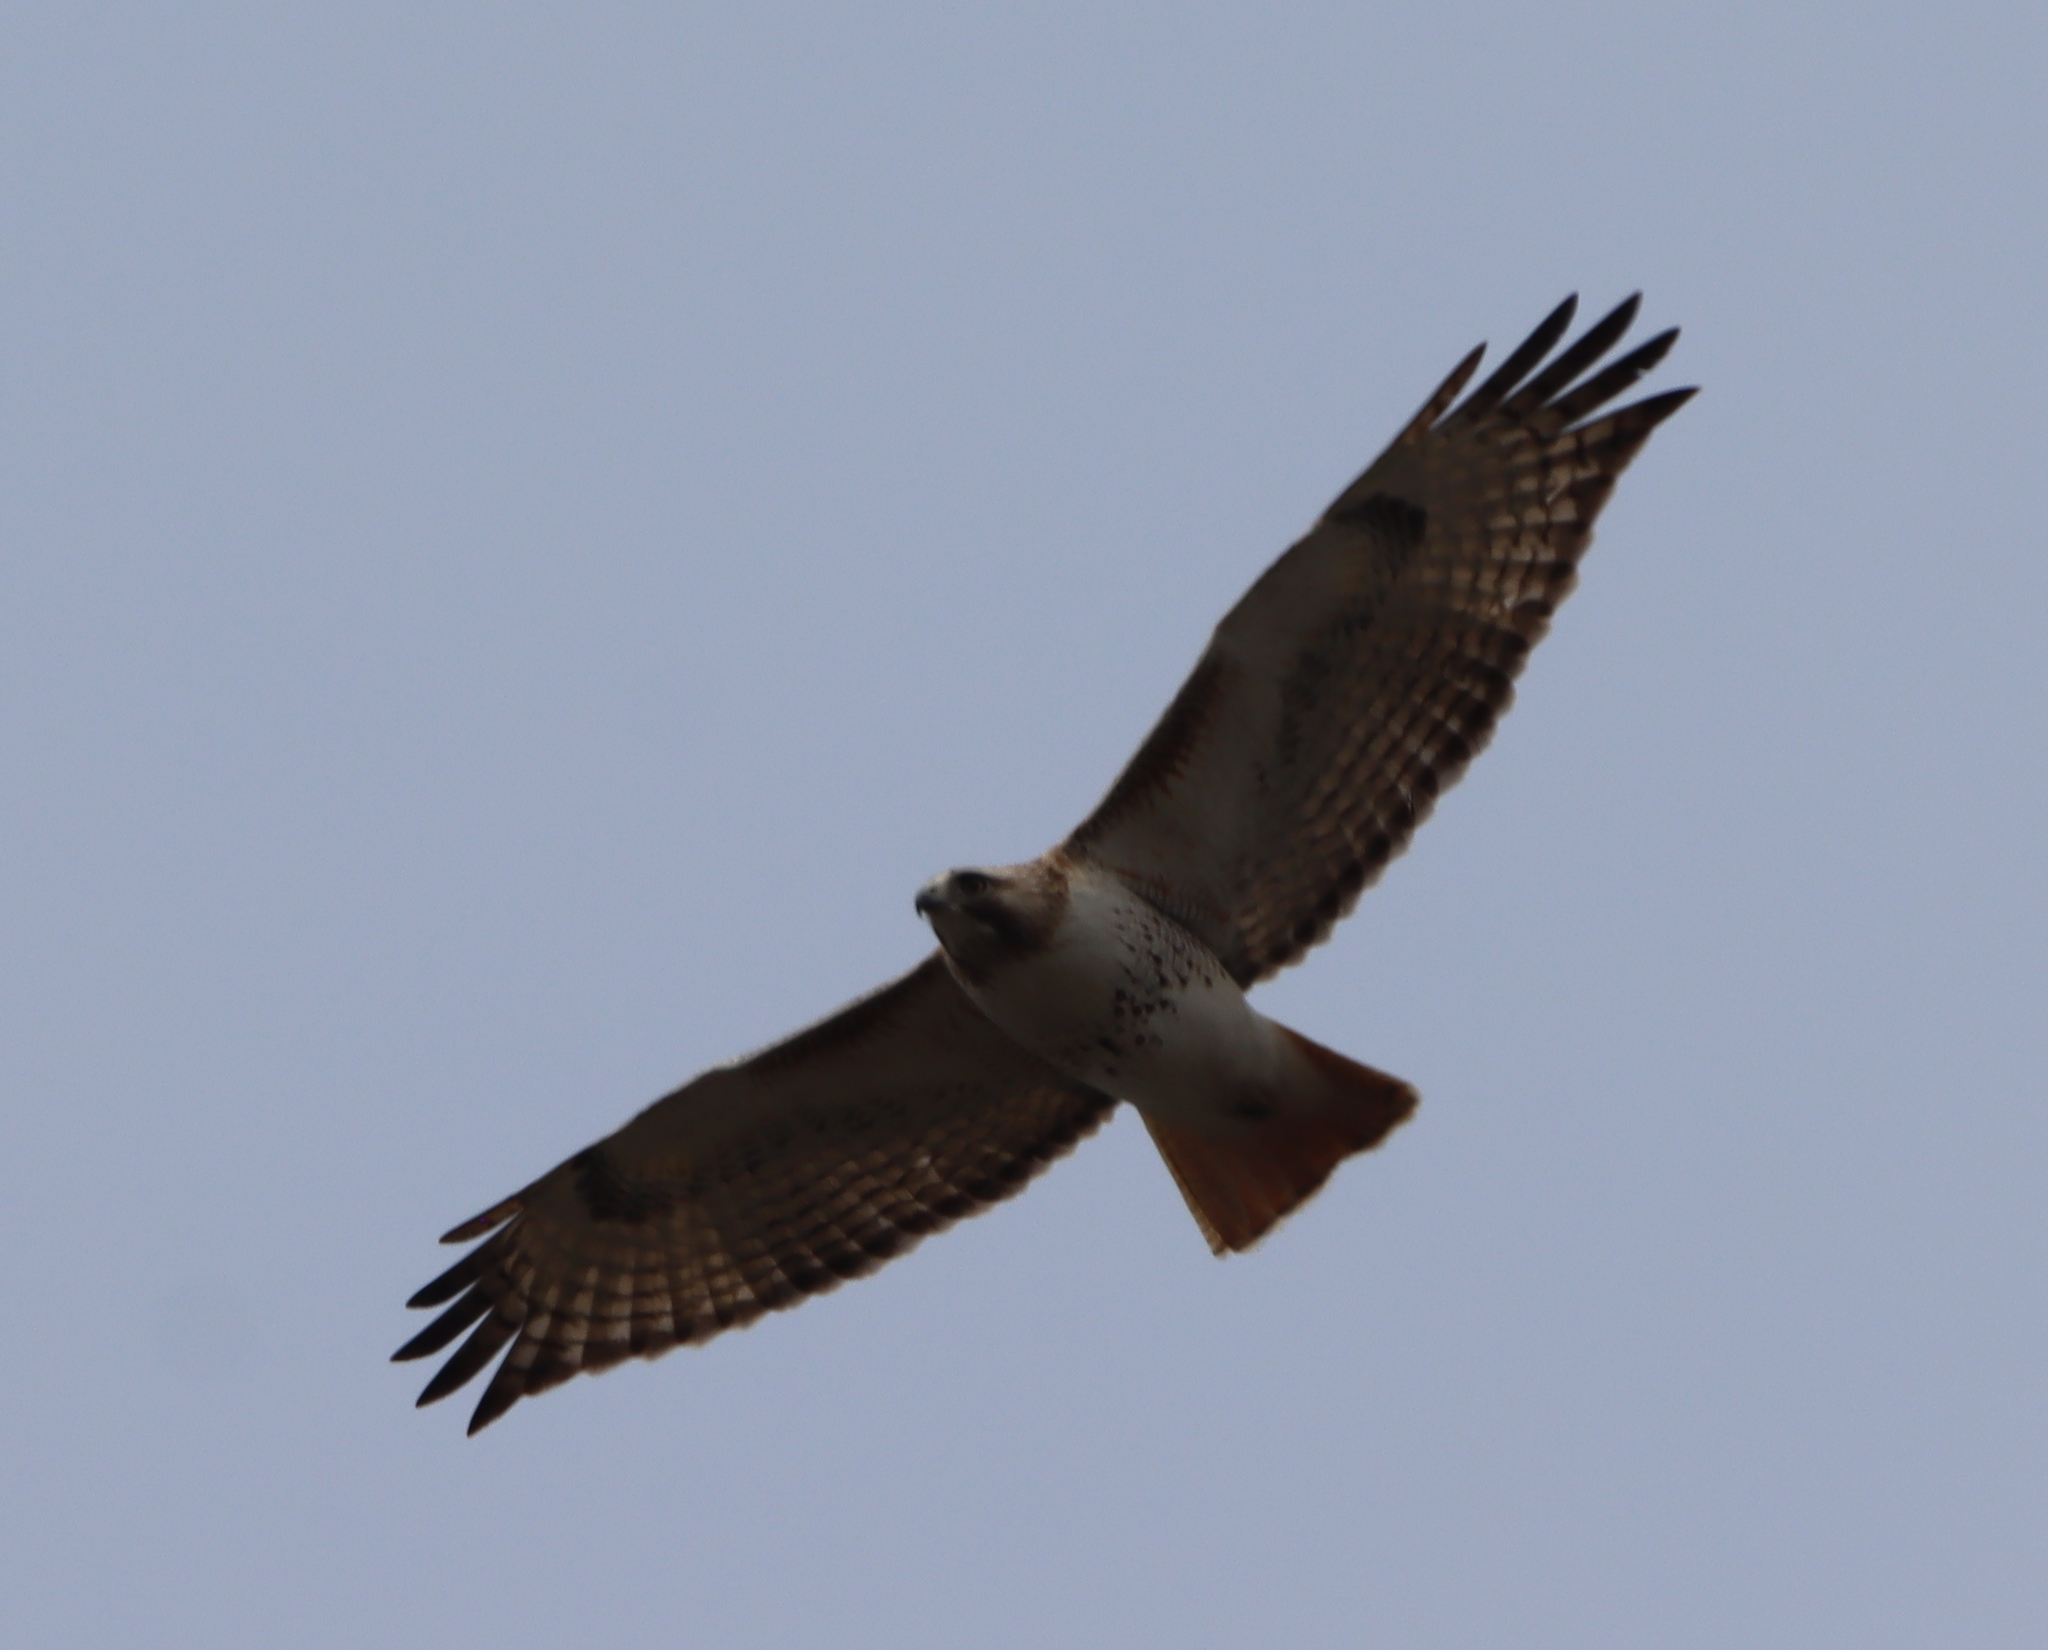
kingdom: Animalia
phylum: Chordata
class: Aves
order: Accipitriformes
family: Accipitridae
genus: Buteo
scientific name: Buteo jamaicensis
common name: Red-tailed hawk
